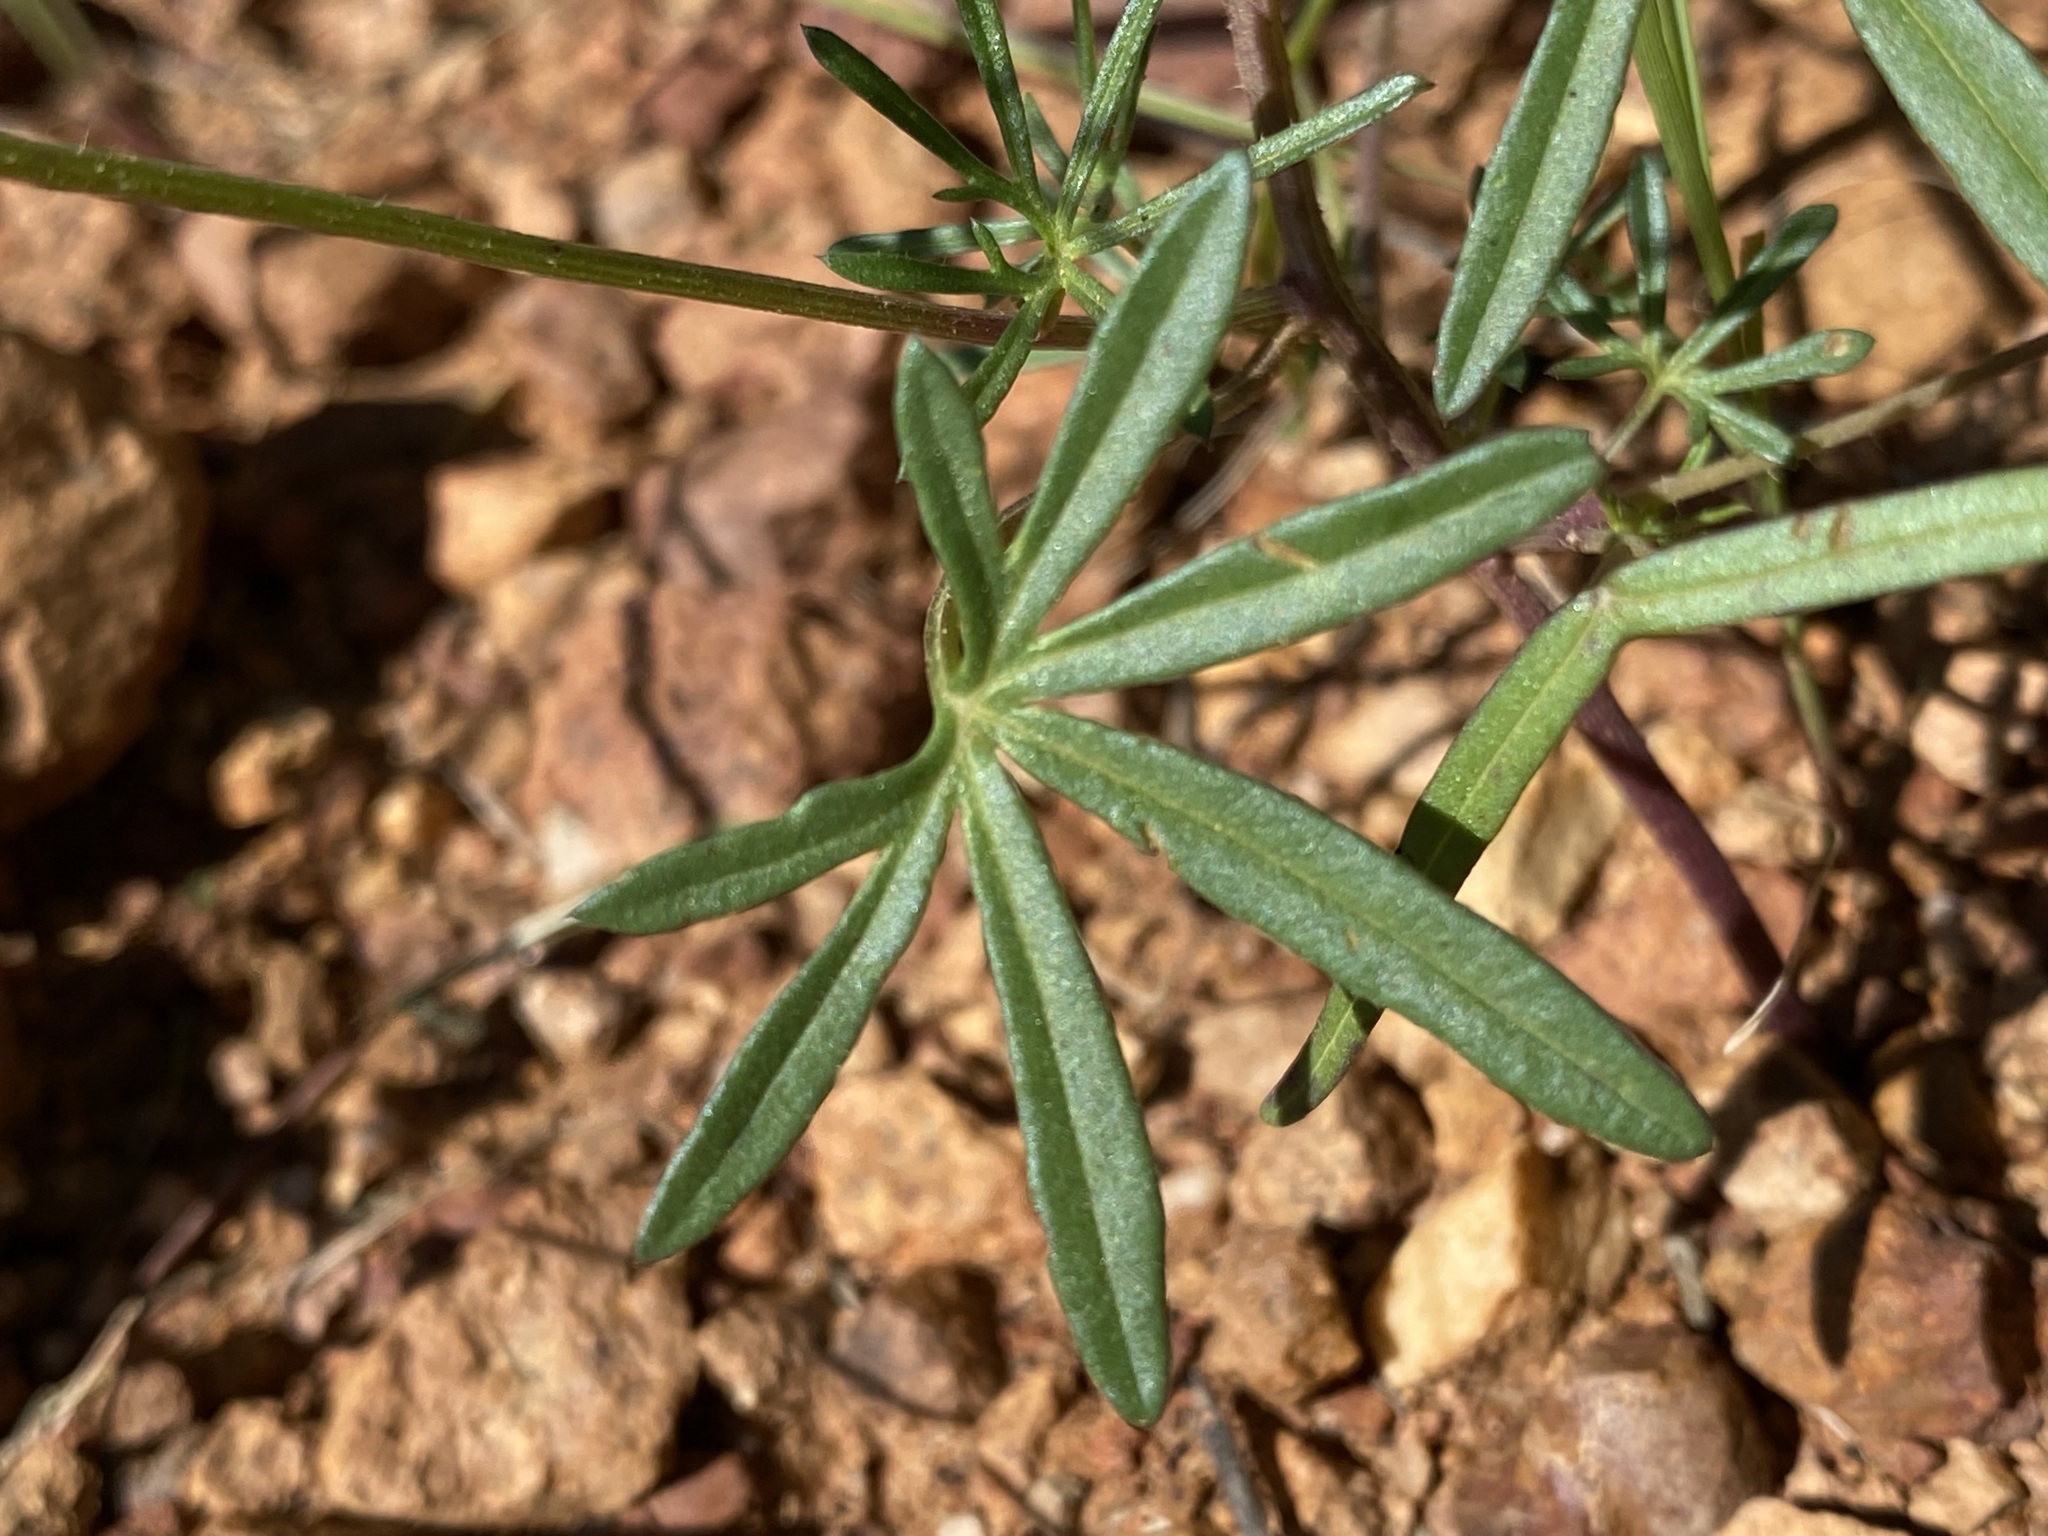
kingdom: Plantae
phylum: Tracheophyta
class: Magnoliopsida
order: Solanales
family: Convolvulaceae
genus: Ipomoea
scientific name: Ipomoea costellata
